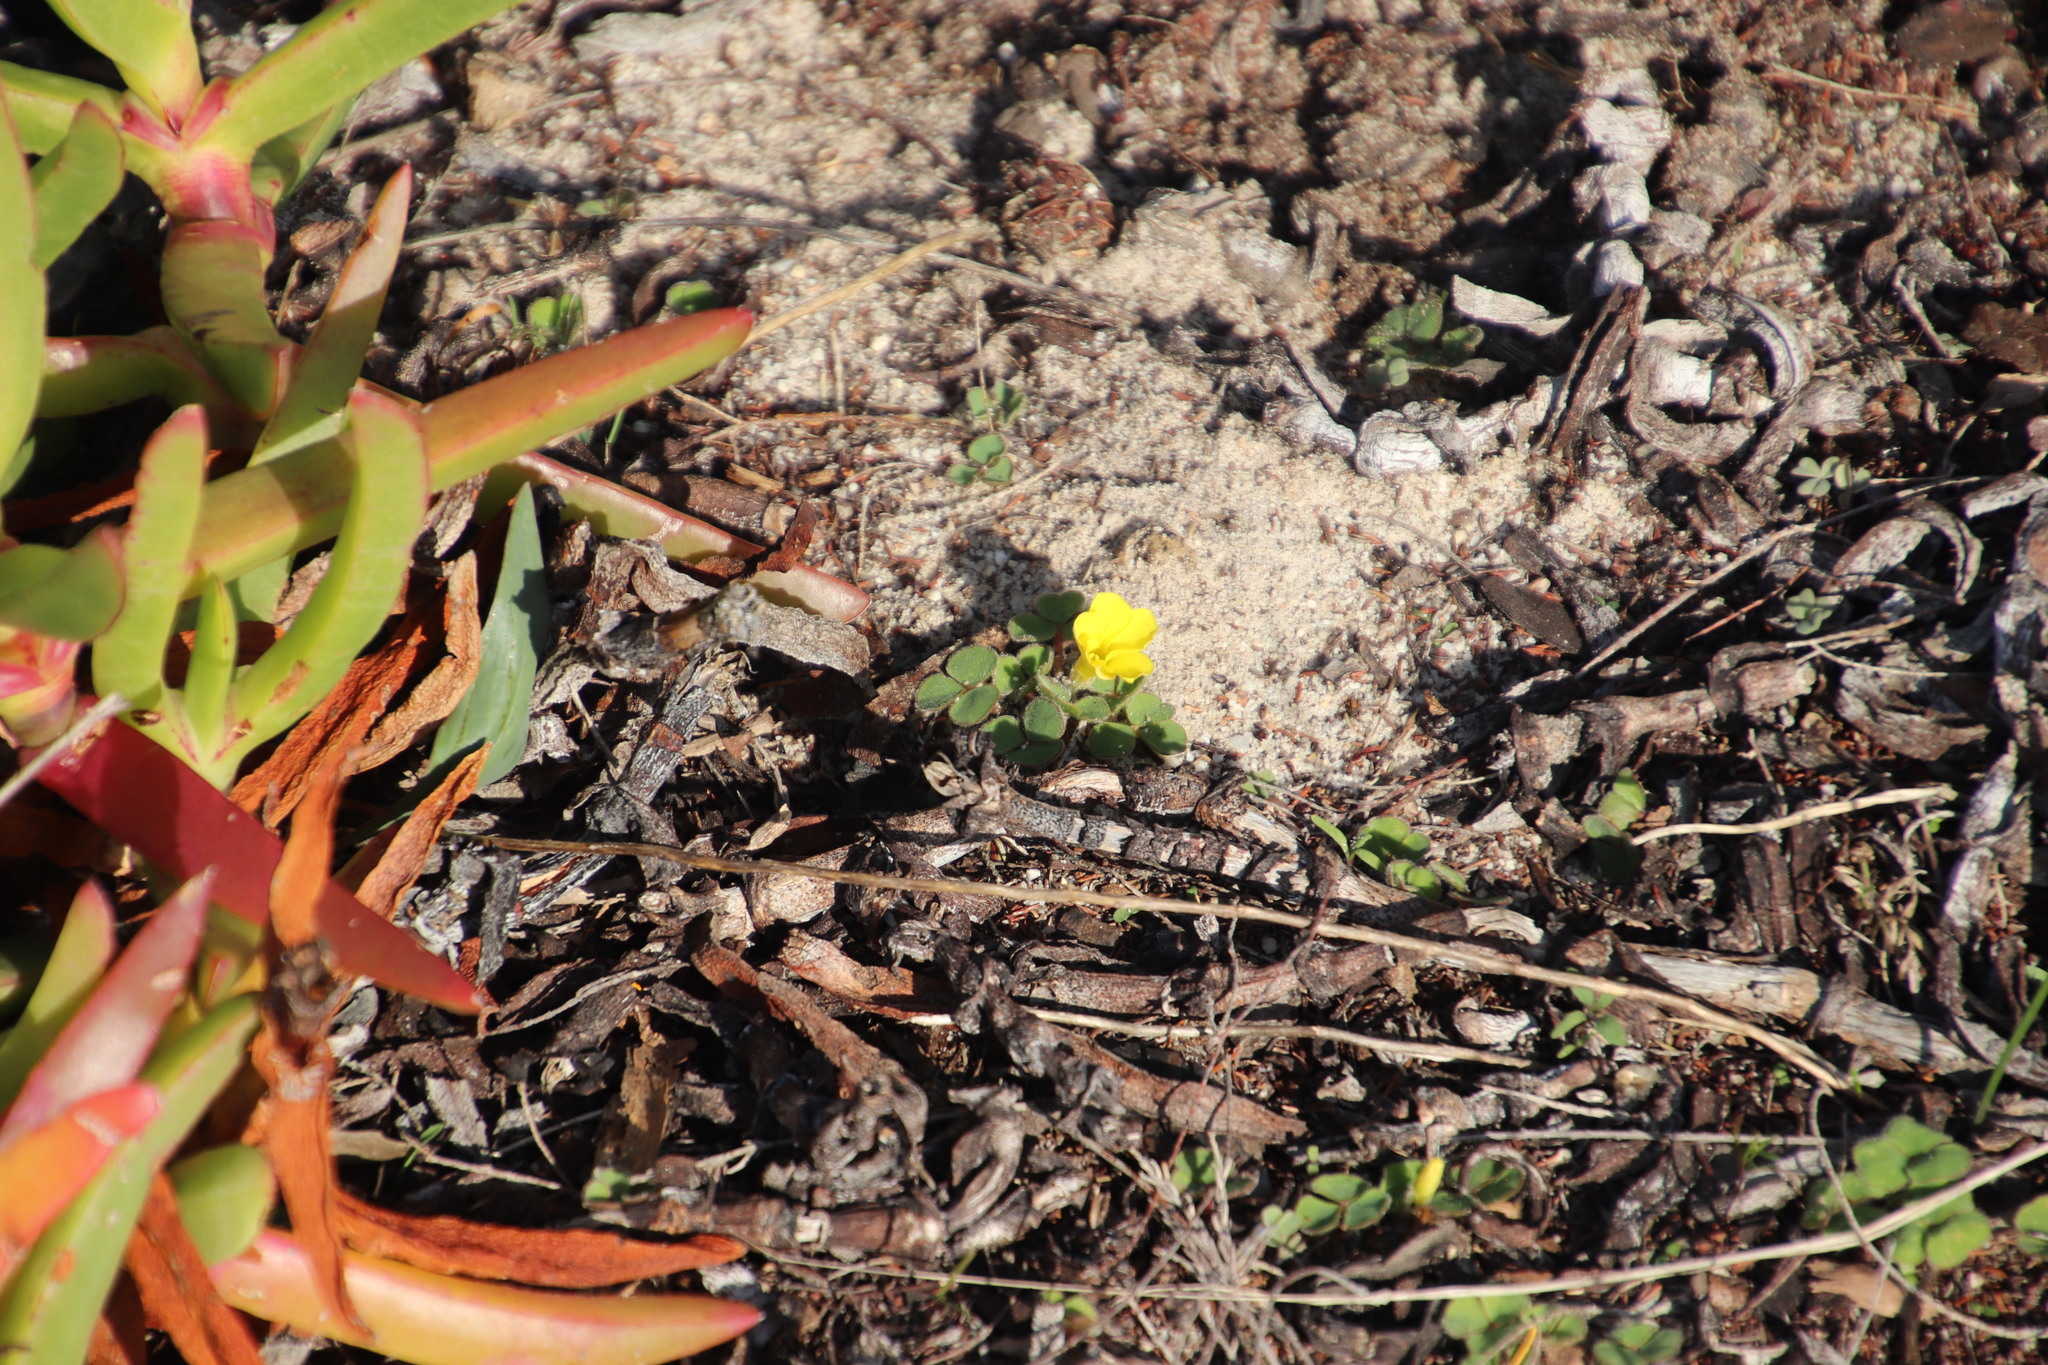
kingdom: Plantae
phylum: Tracheophyta
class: Magnoliopsida
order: Oxalidales
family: Oxalidaceae
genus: Oxalis
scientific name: Oxalis luteola
